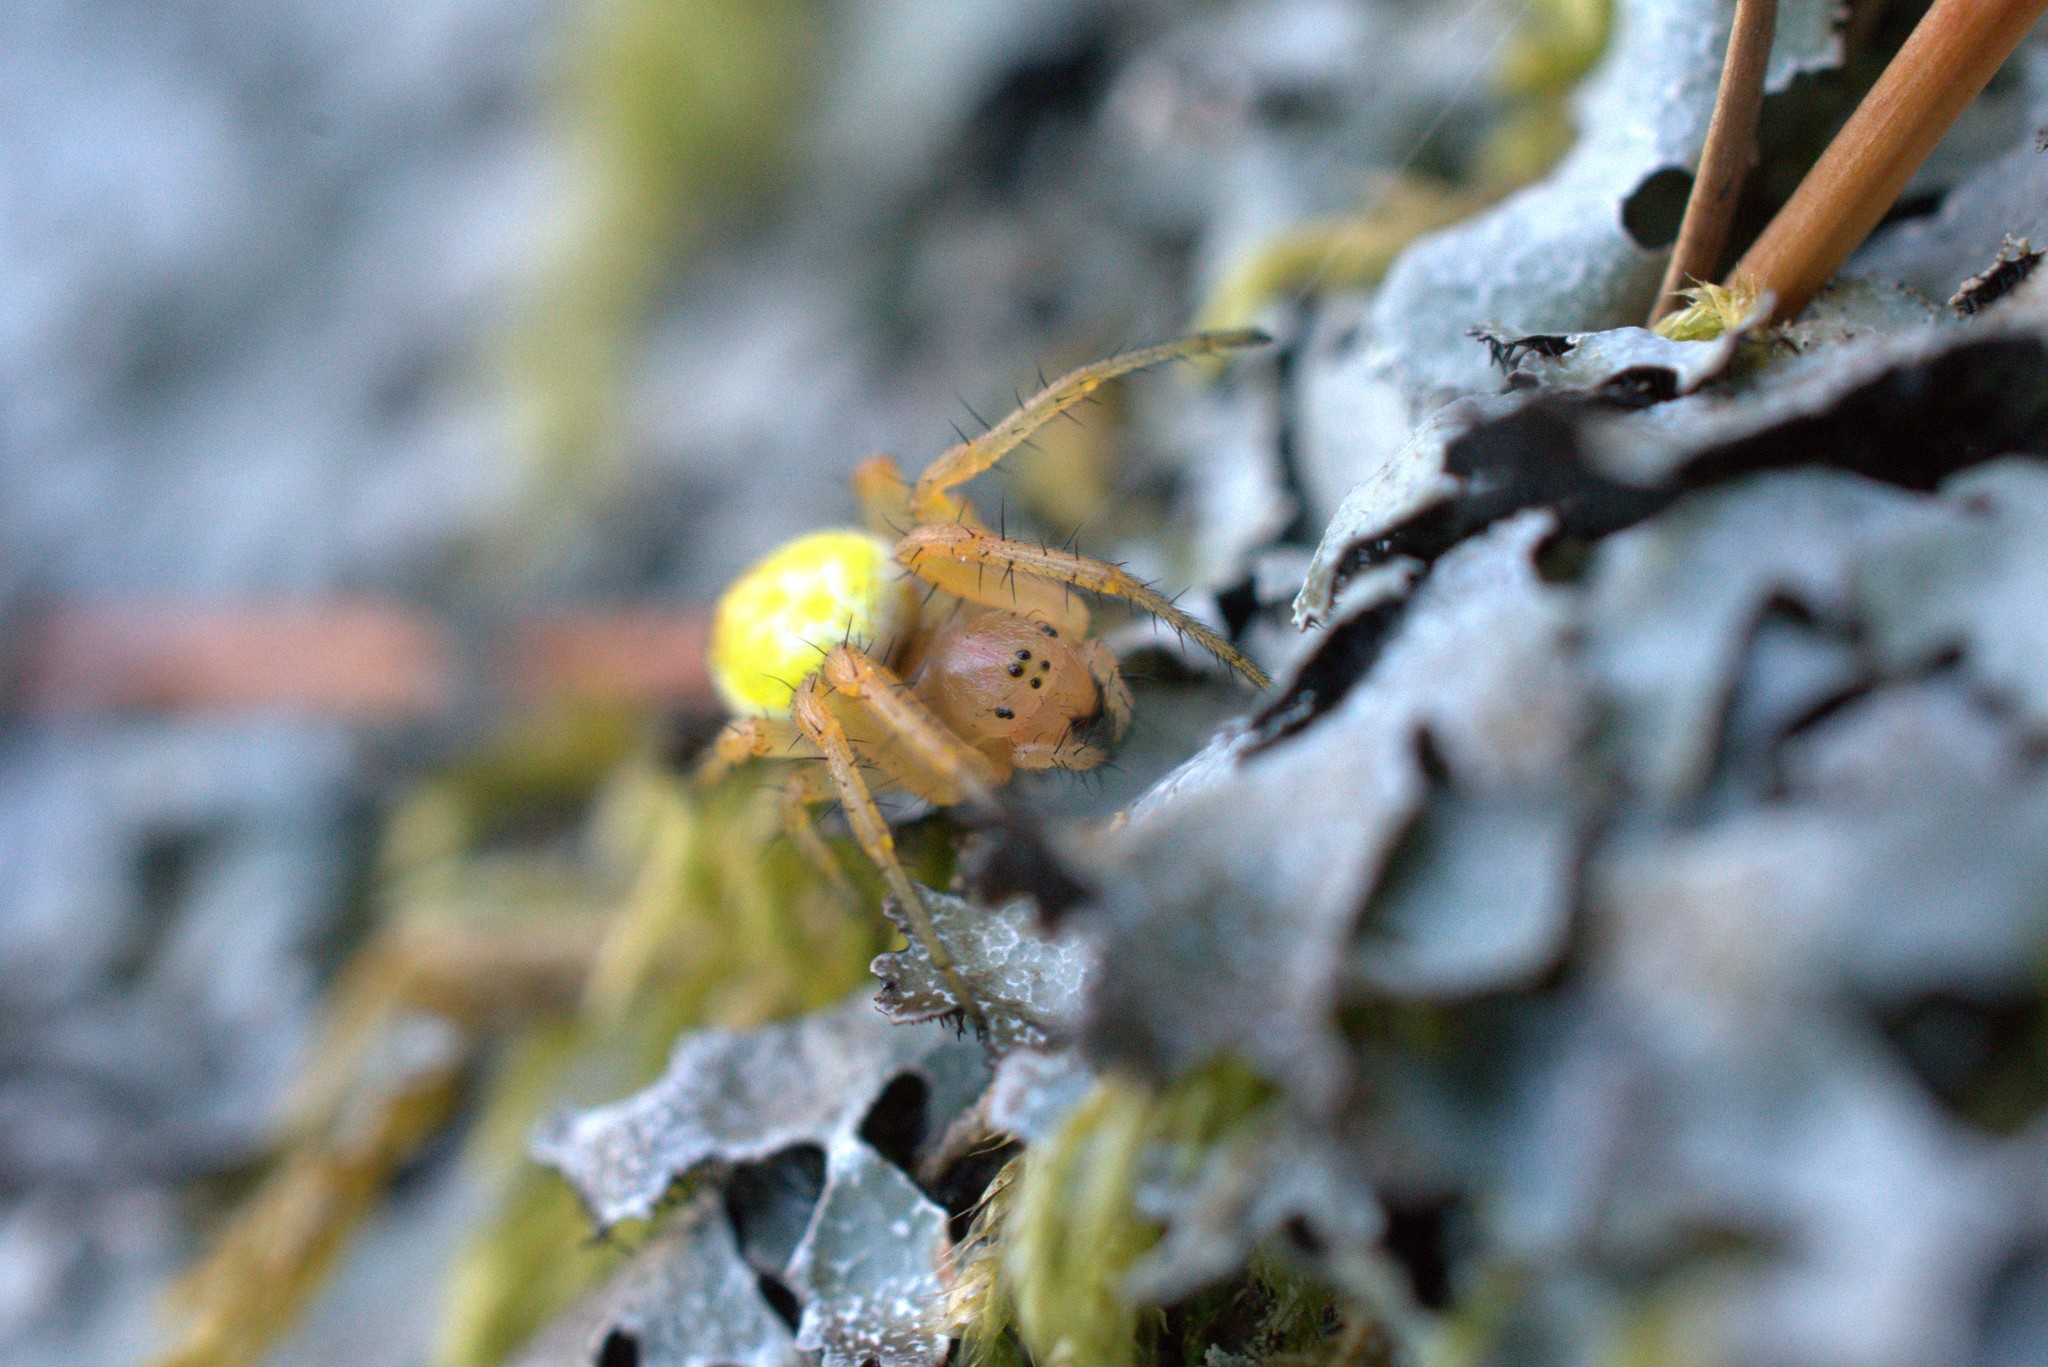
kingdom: Animalia
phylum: Arthropoda
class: Arachnida
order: Araneae
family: Araneidae
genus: Araniella
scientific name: Araniella displicata
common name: Sixspotted orb weaver
